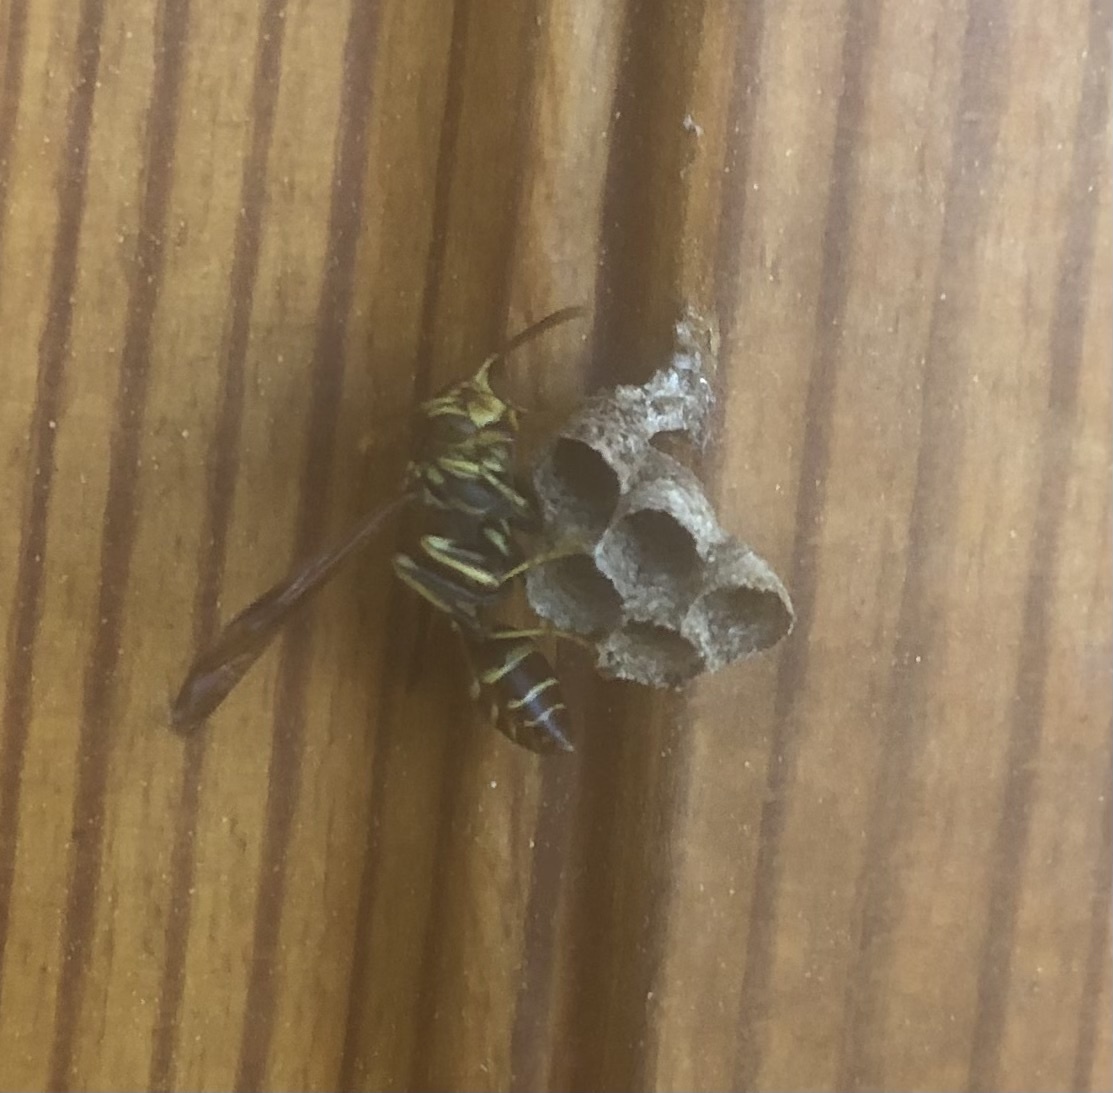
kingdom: Animalia
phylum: Arthropoda
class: Insecta
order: Hymenoptera
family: Vespidae
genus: Mischocyttarus
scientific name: Mischocyttarus mexicanus
